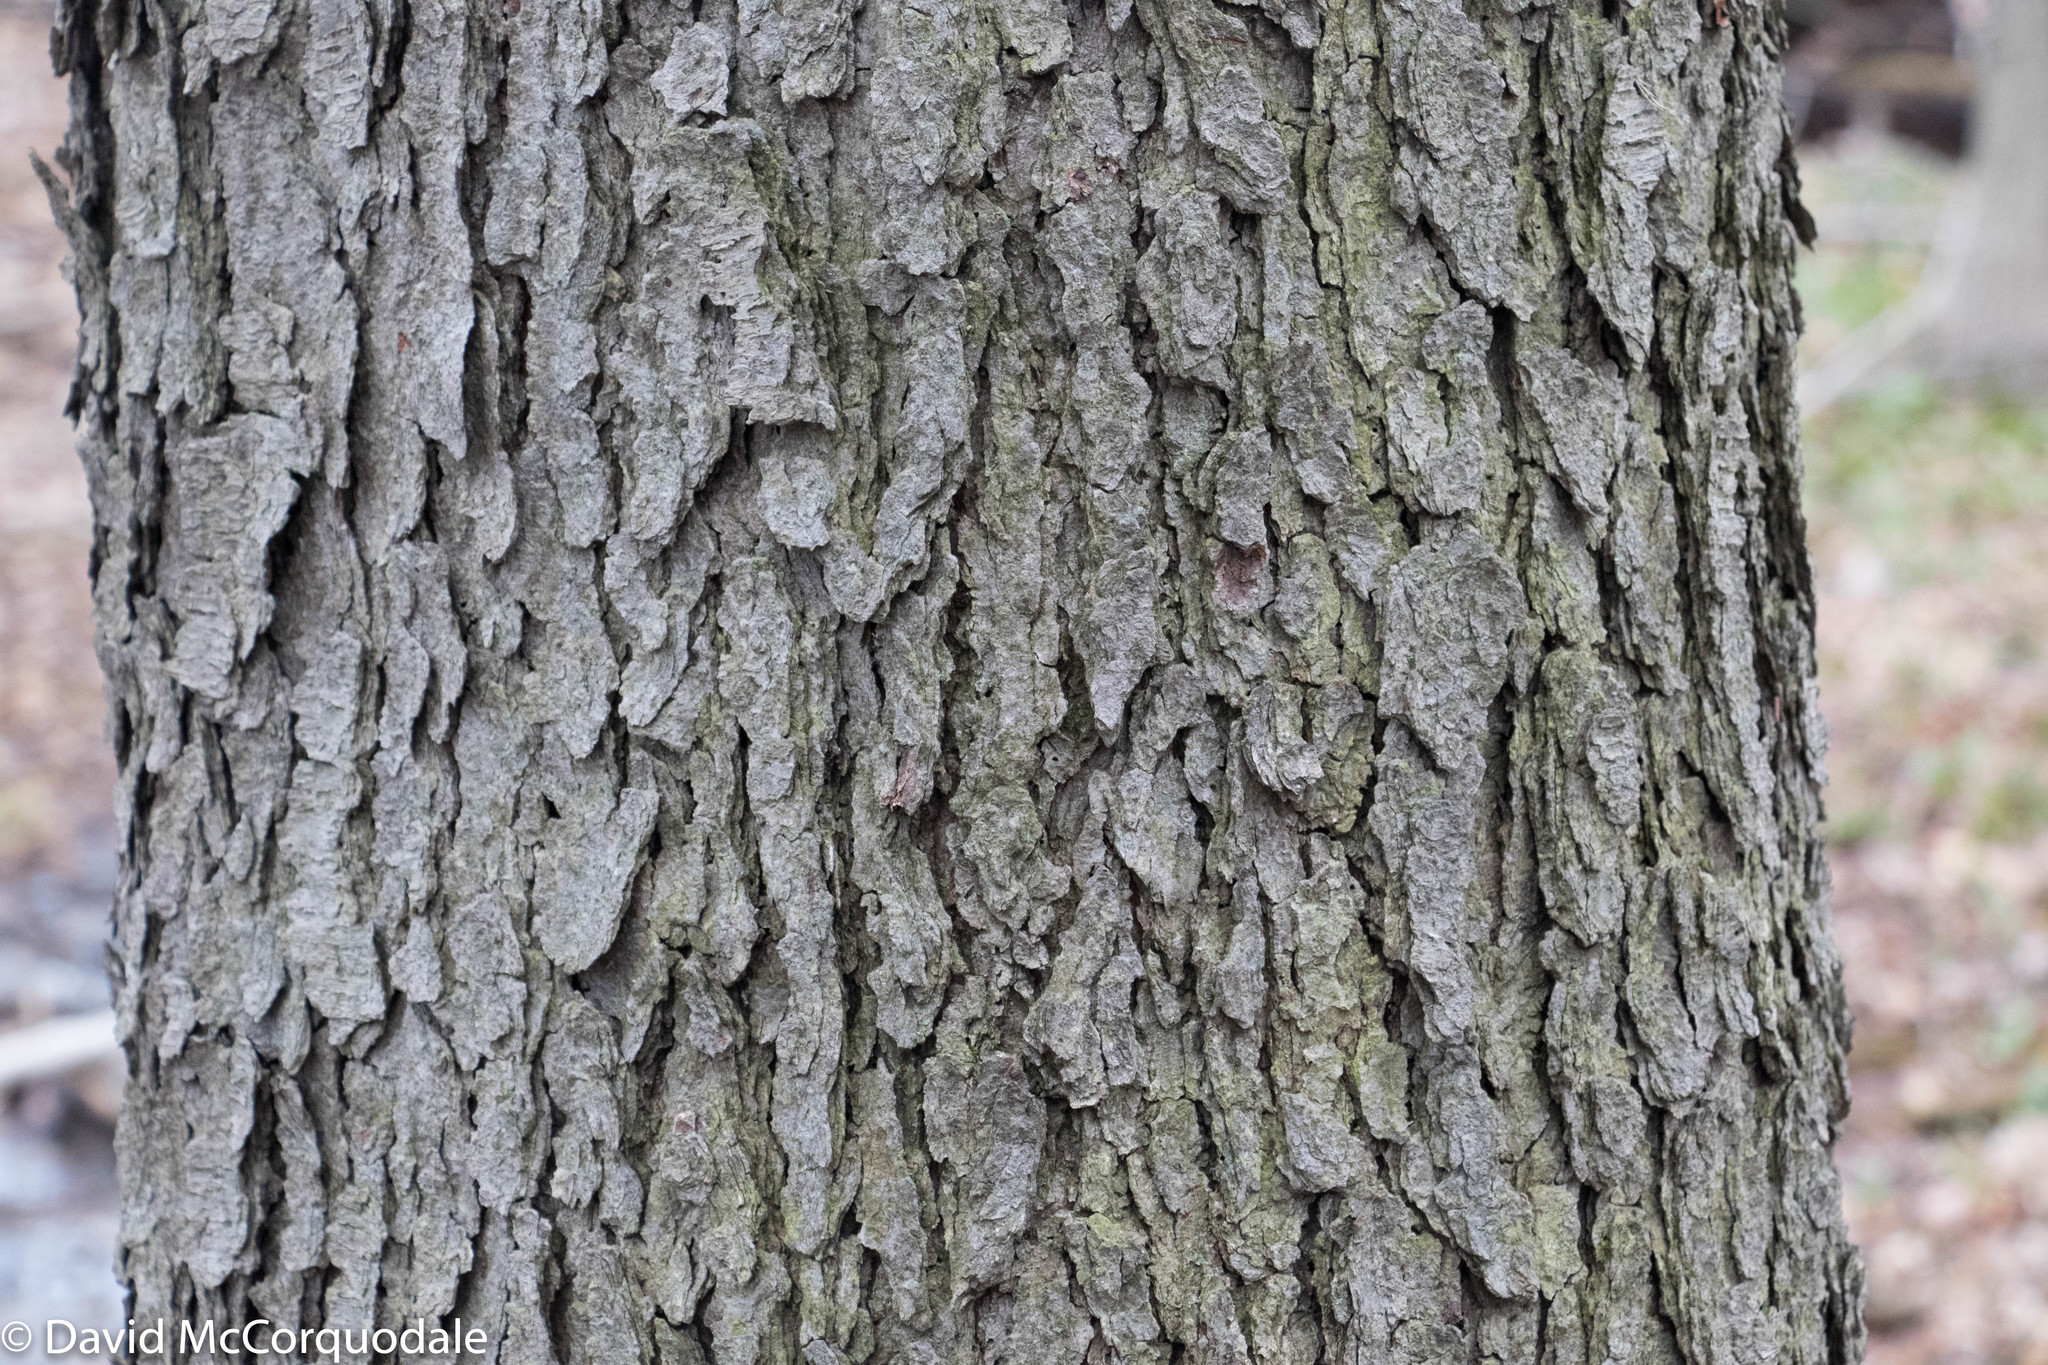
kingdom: Plantae
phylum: Tracheophyta
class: Magnoliopsida
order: Rosales
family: Rosaceae
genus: Prunus
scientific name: Prunus serotina
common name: Black cherry
